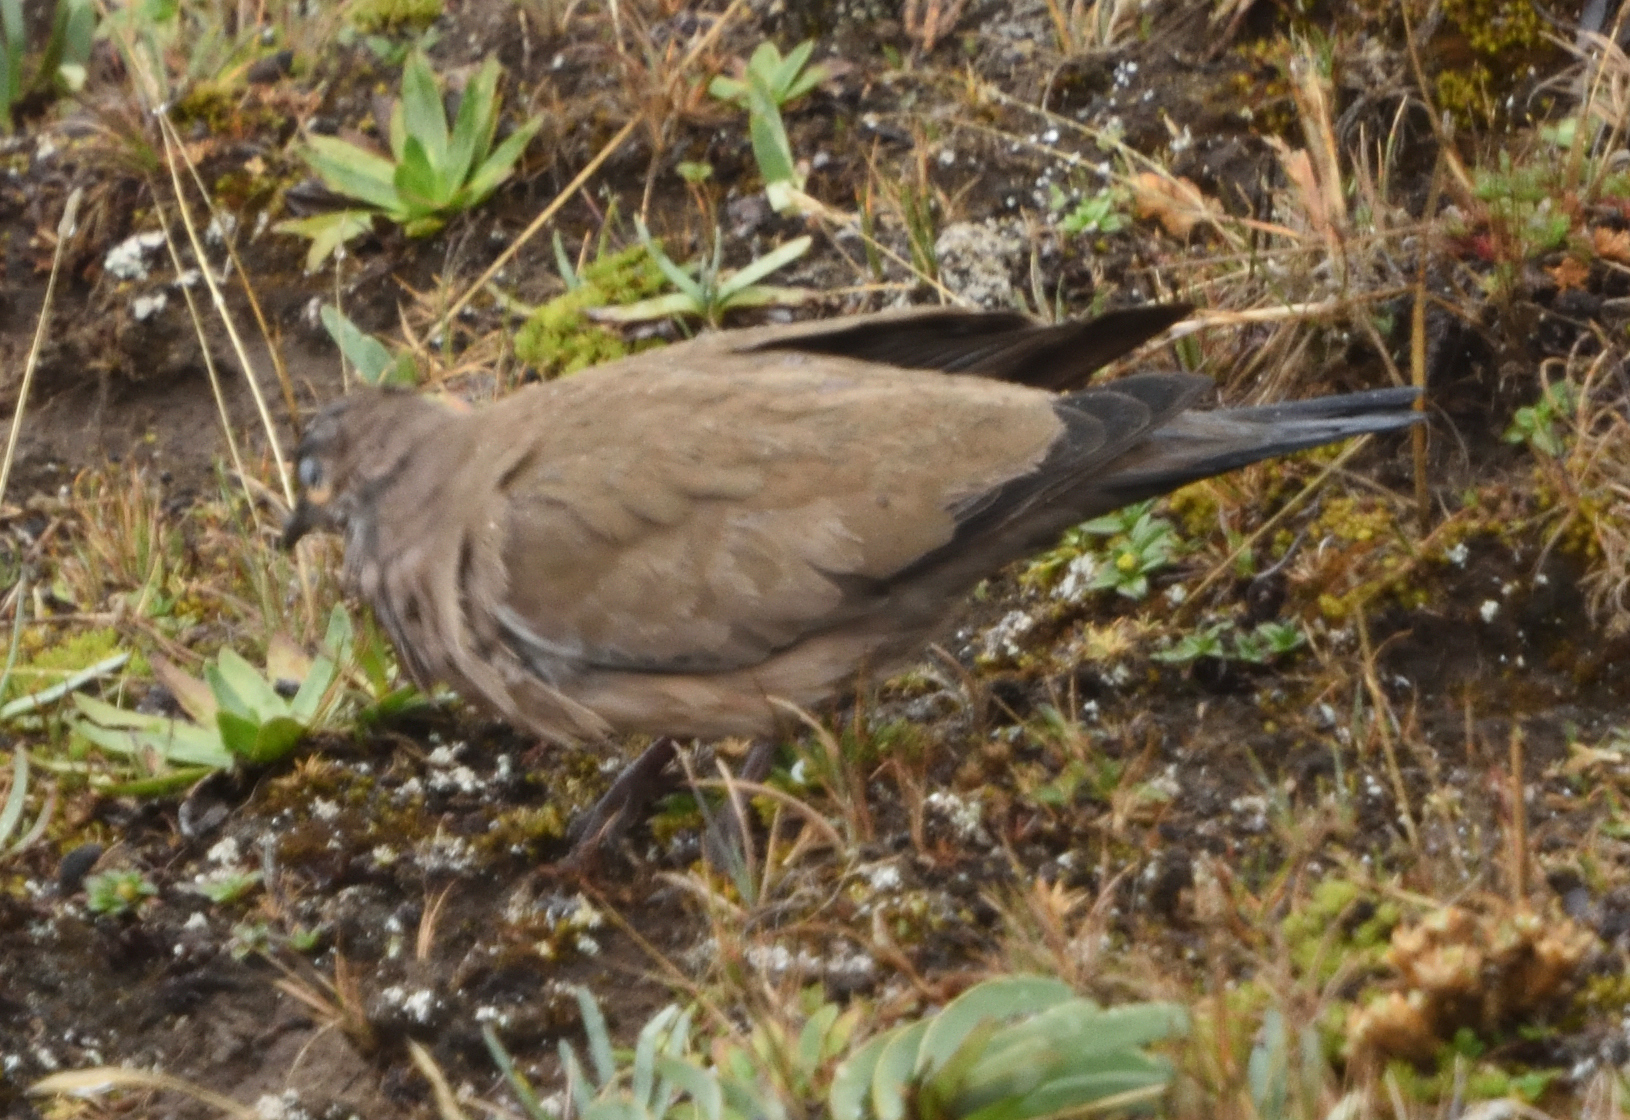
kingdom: Animalia
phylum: Chordata
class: Aves
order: Columbiformes
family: Columbidae
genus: Metriopelia
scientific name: Metriopelia melanoptera
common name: Black-winged ground dove
